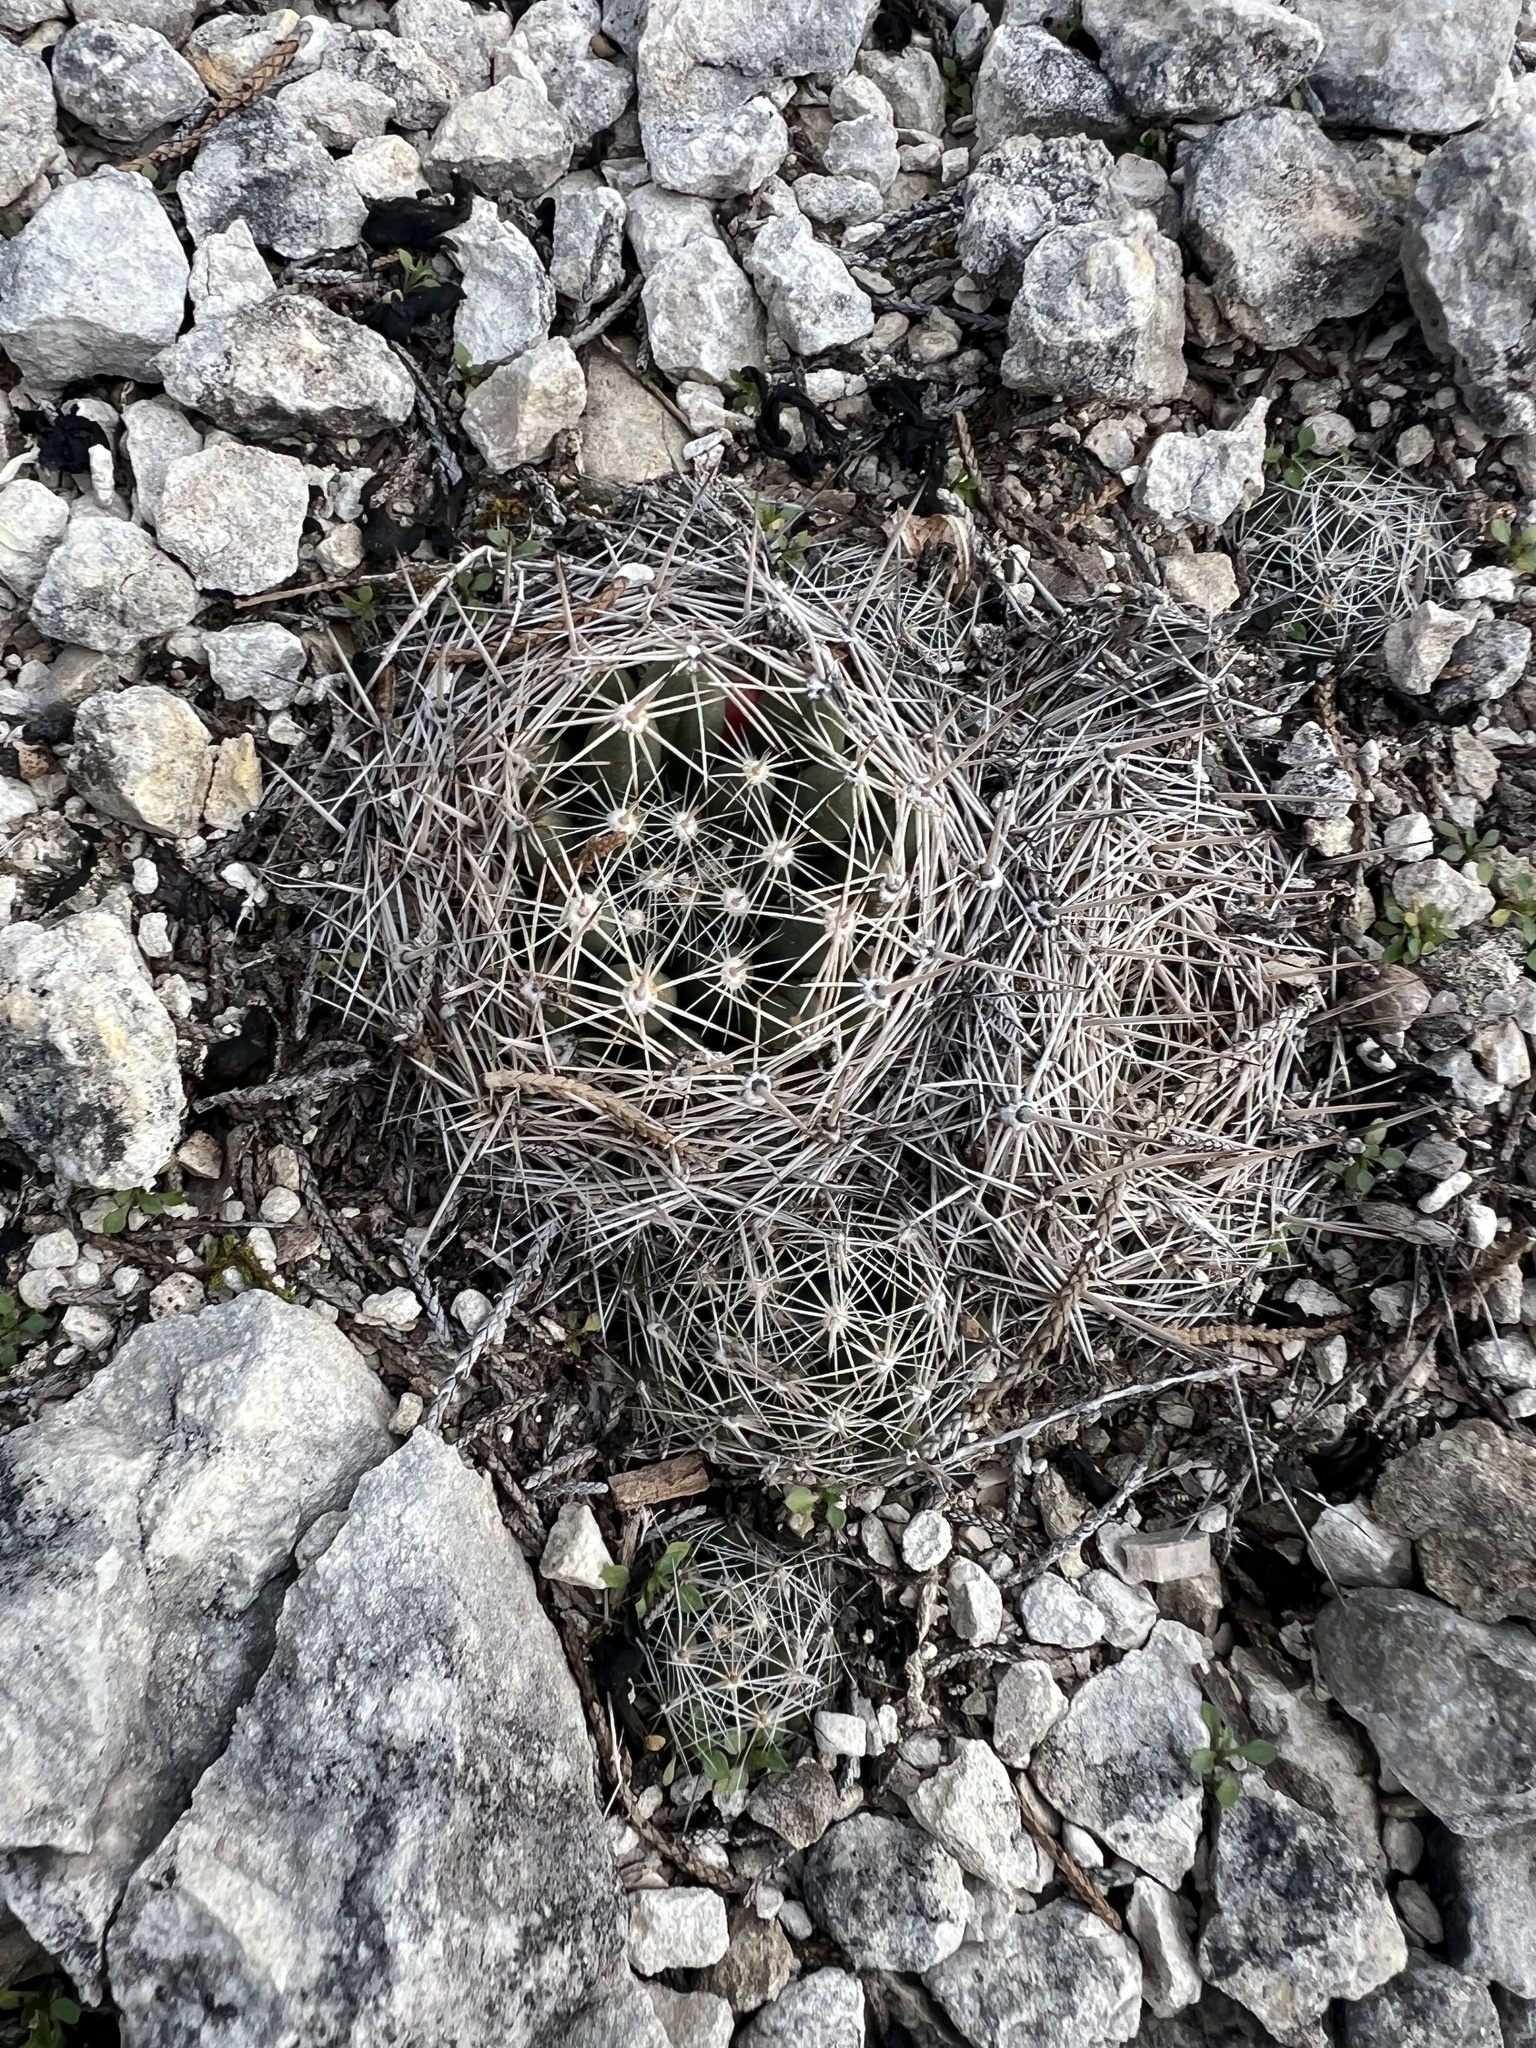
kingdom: Plantae
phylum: Tracheophyta
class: Magnoliopsida
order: Caryophyllales
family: Cactaceae
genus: Pelecyphora
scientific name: Pelecyphora missouriensis
